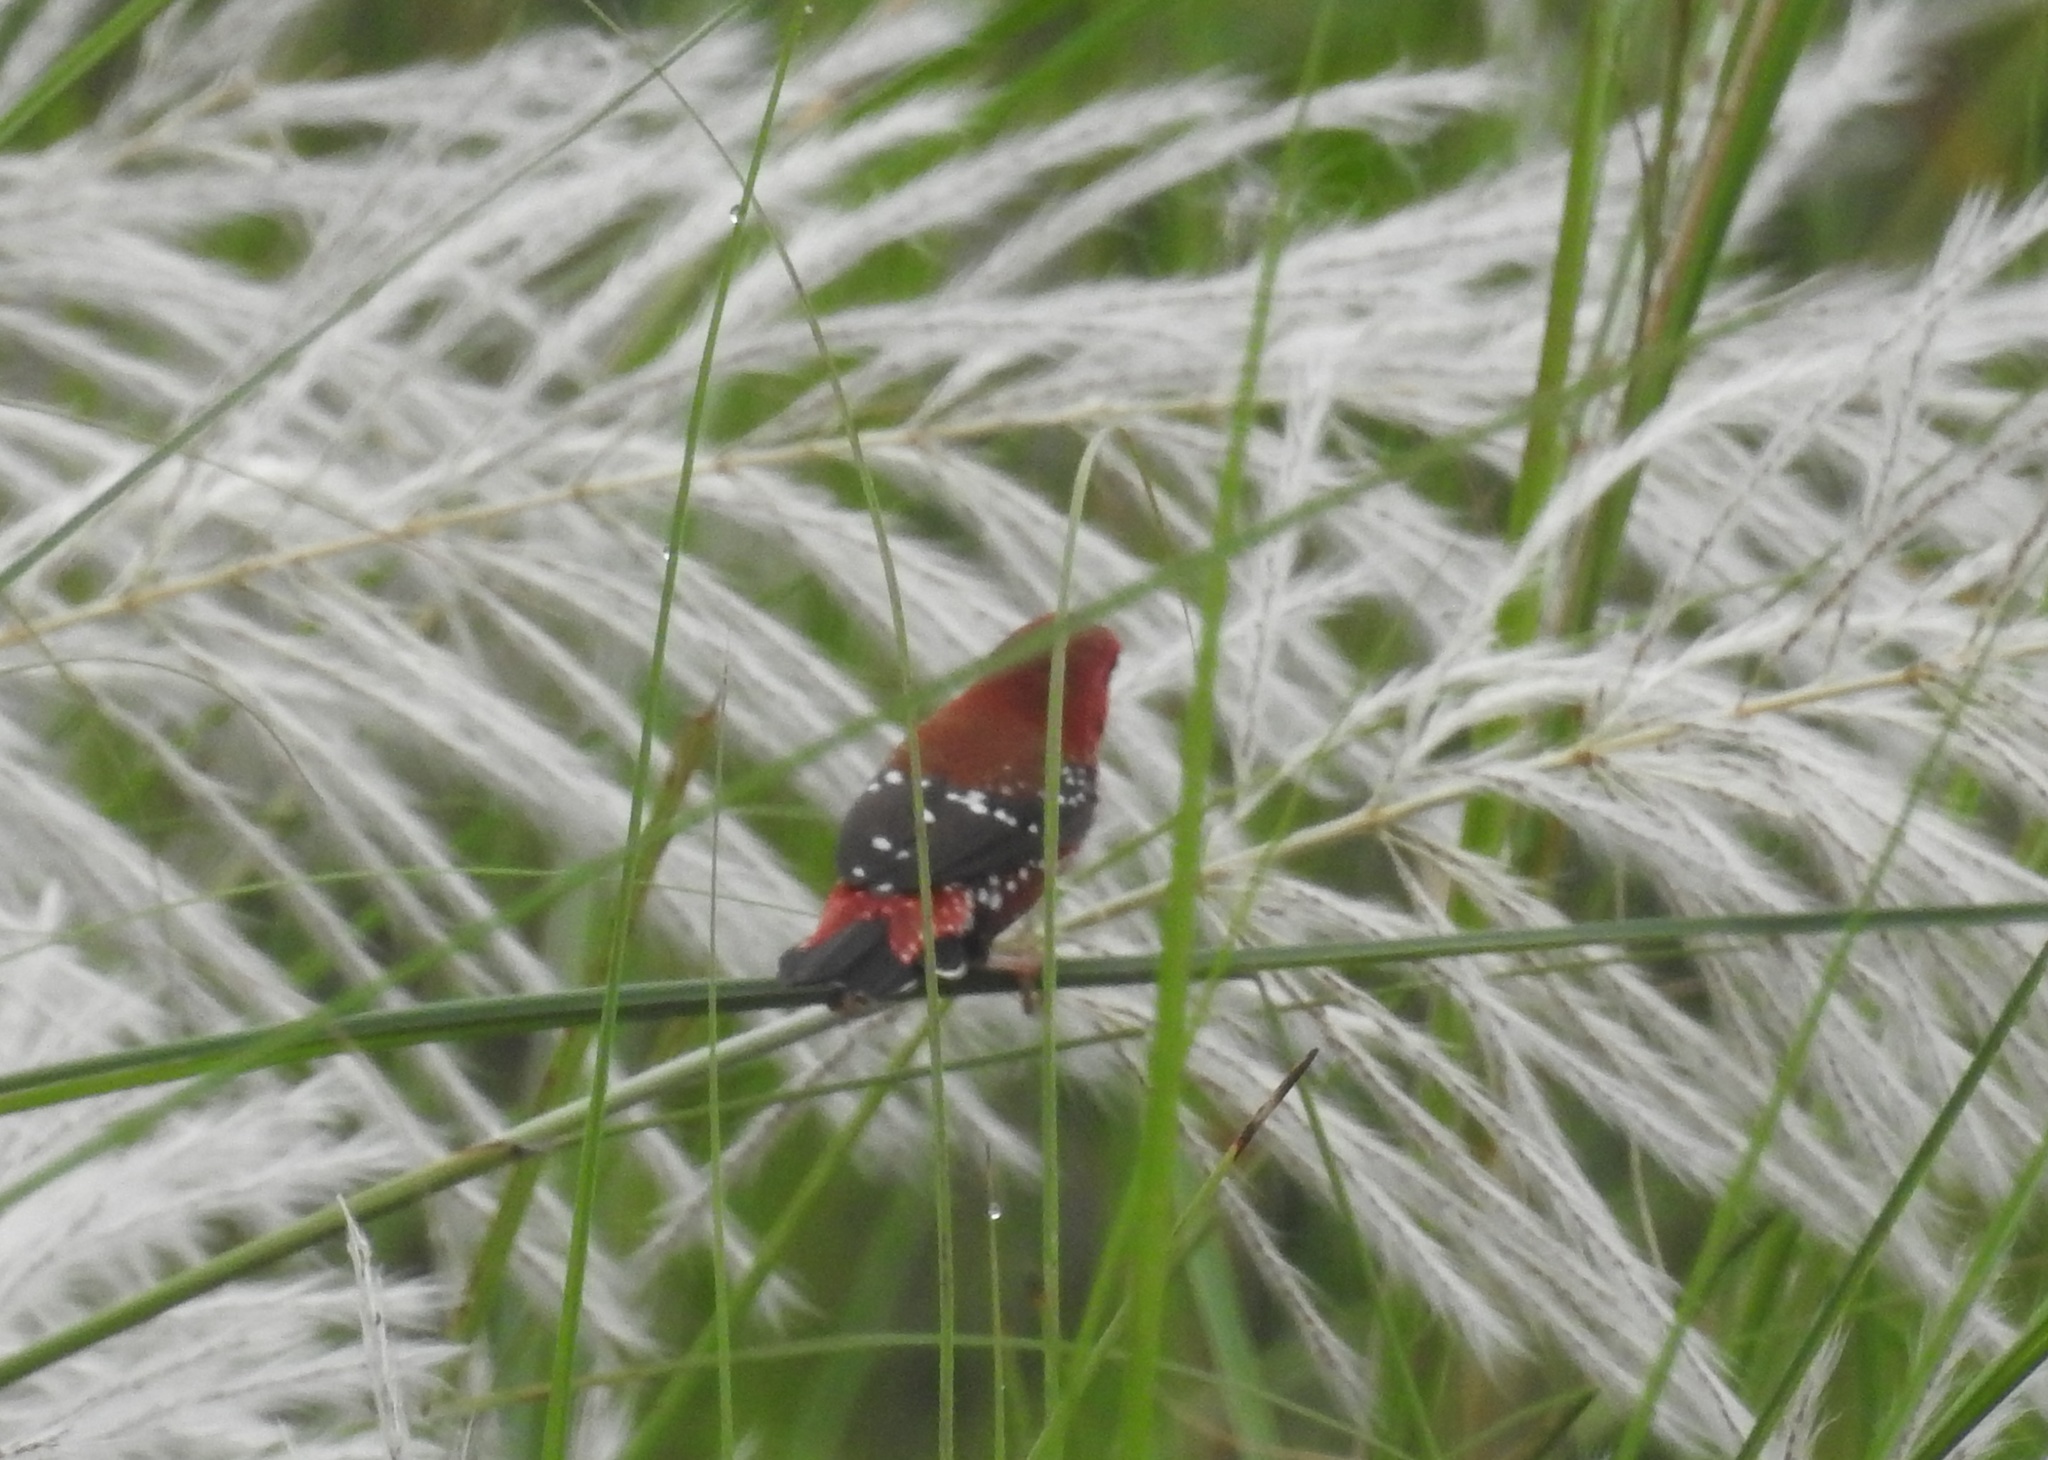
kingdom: Animalia
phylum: Chordata
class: Aves
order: Passeriformes
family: Estrildidae
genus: Amandava
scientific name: Amandava amandava
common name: Red avadavat
